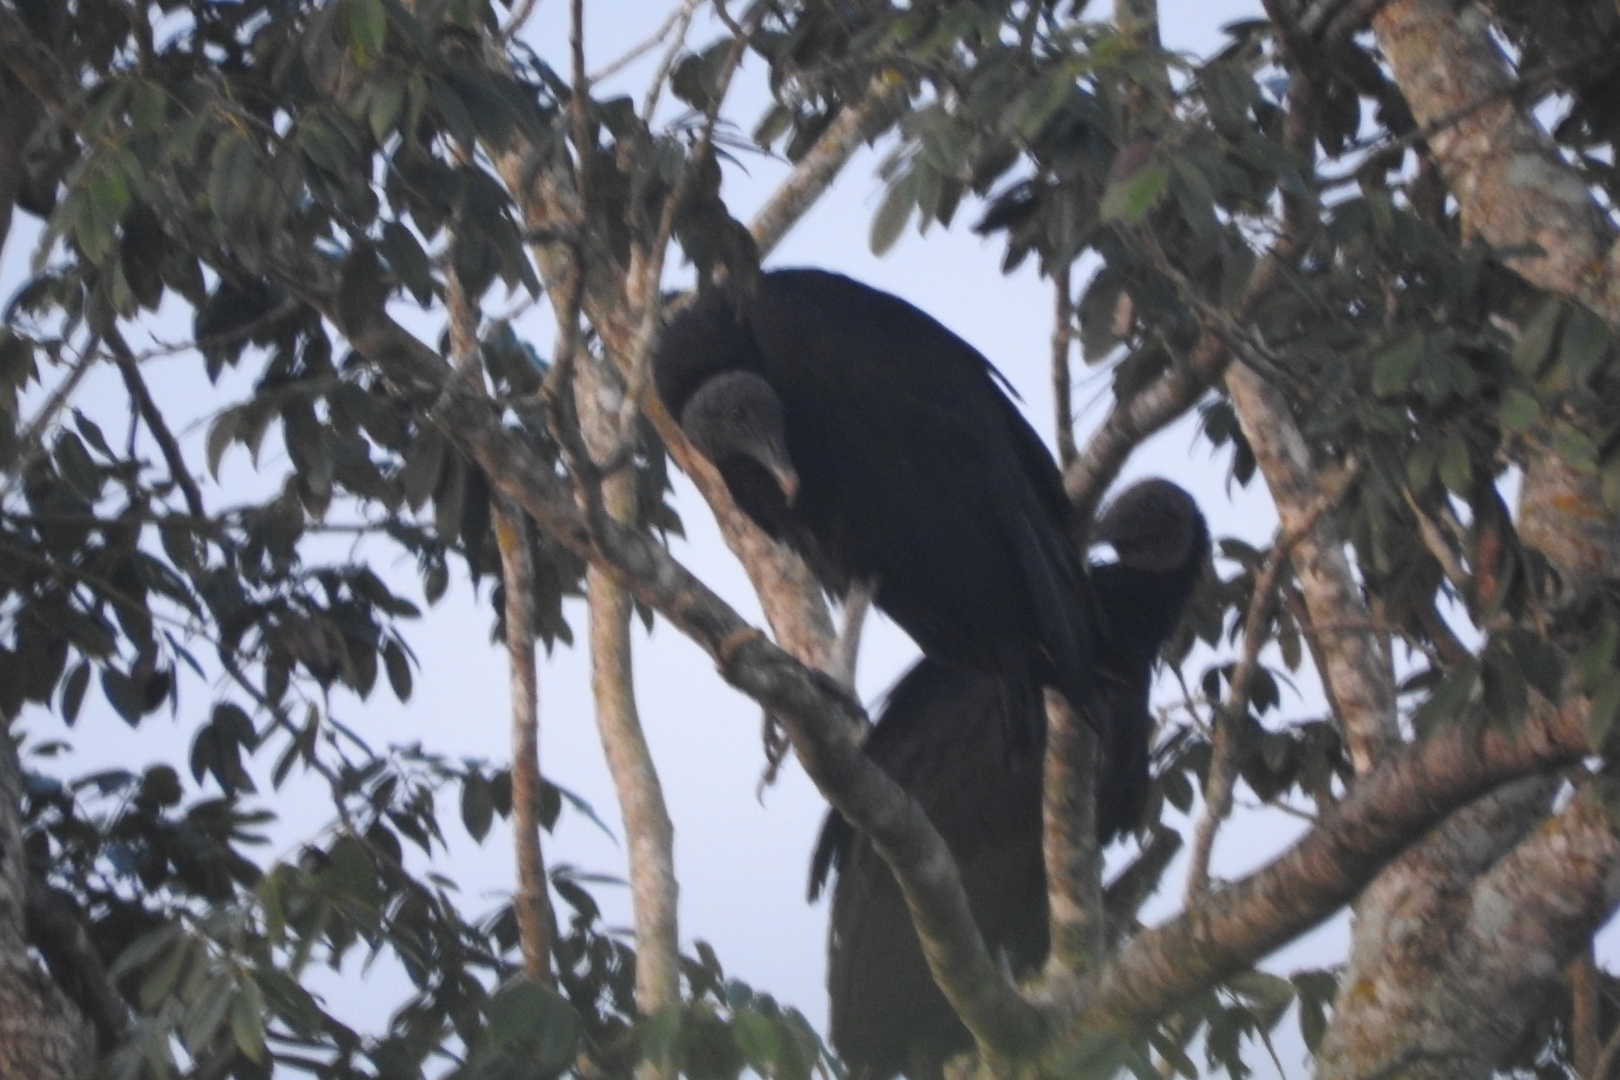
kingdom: Animalia
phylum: Chordata
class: Aves
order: Accipitriformes
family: Cathartidae
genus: Coragyps
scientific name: Coragyps atratus
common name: Black vulture
